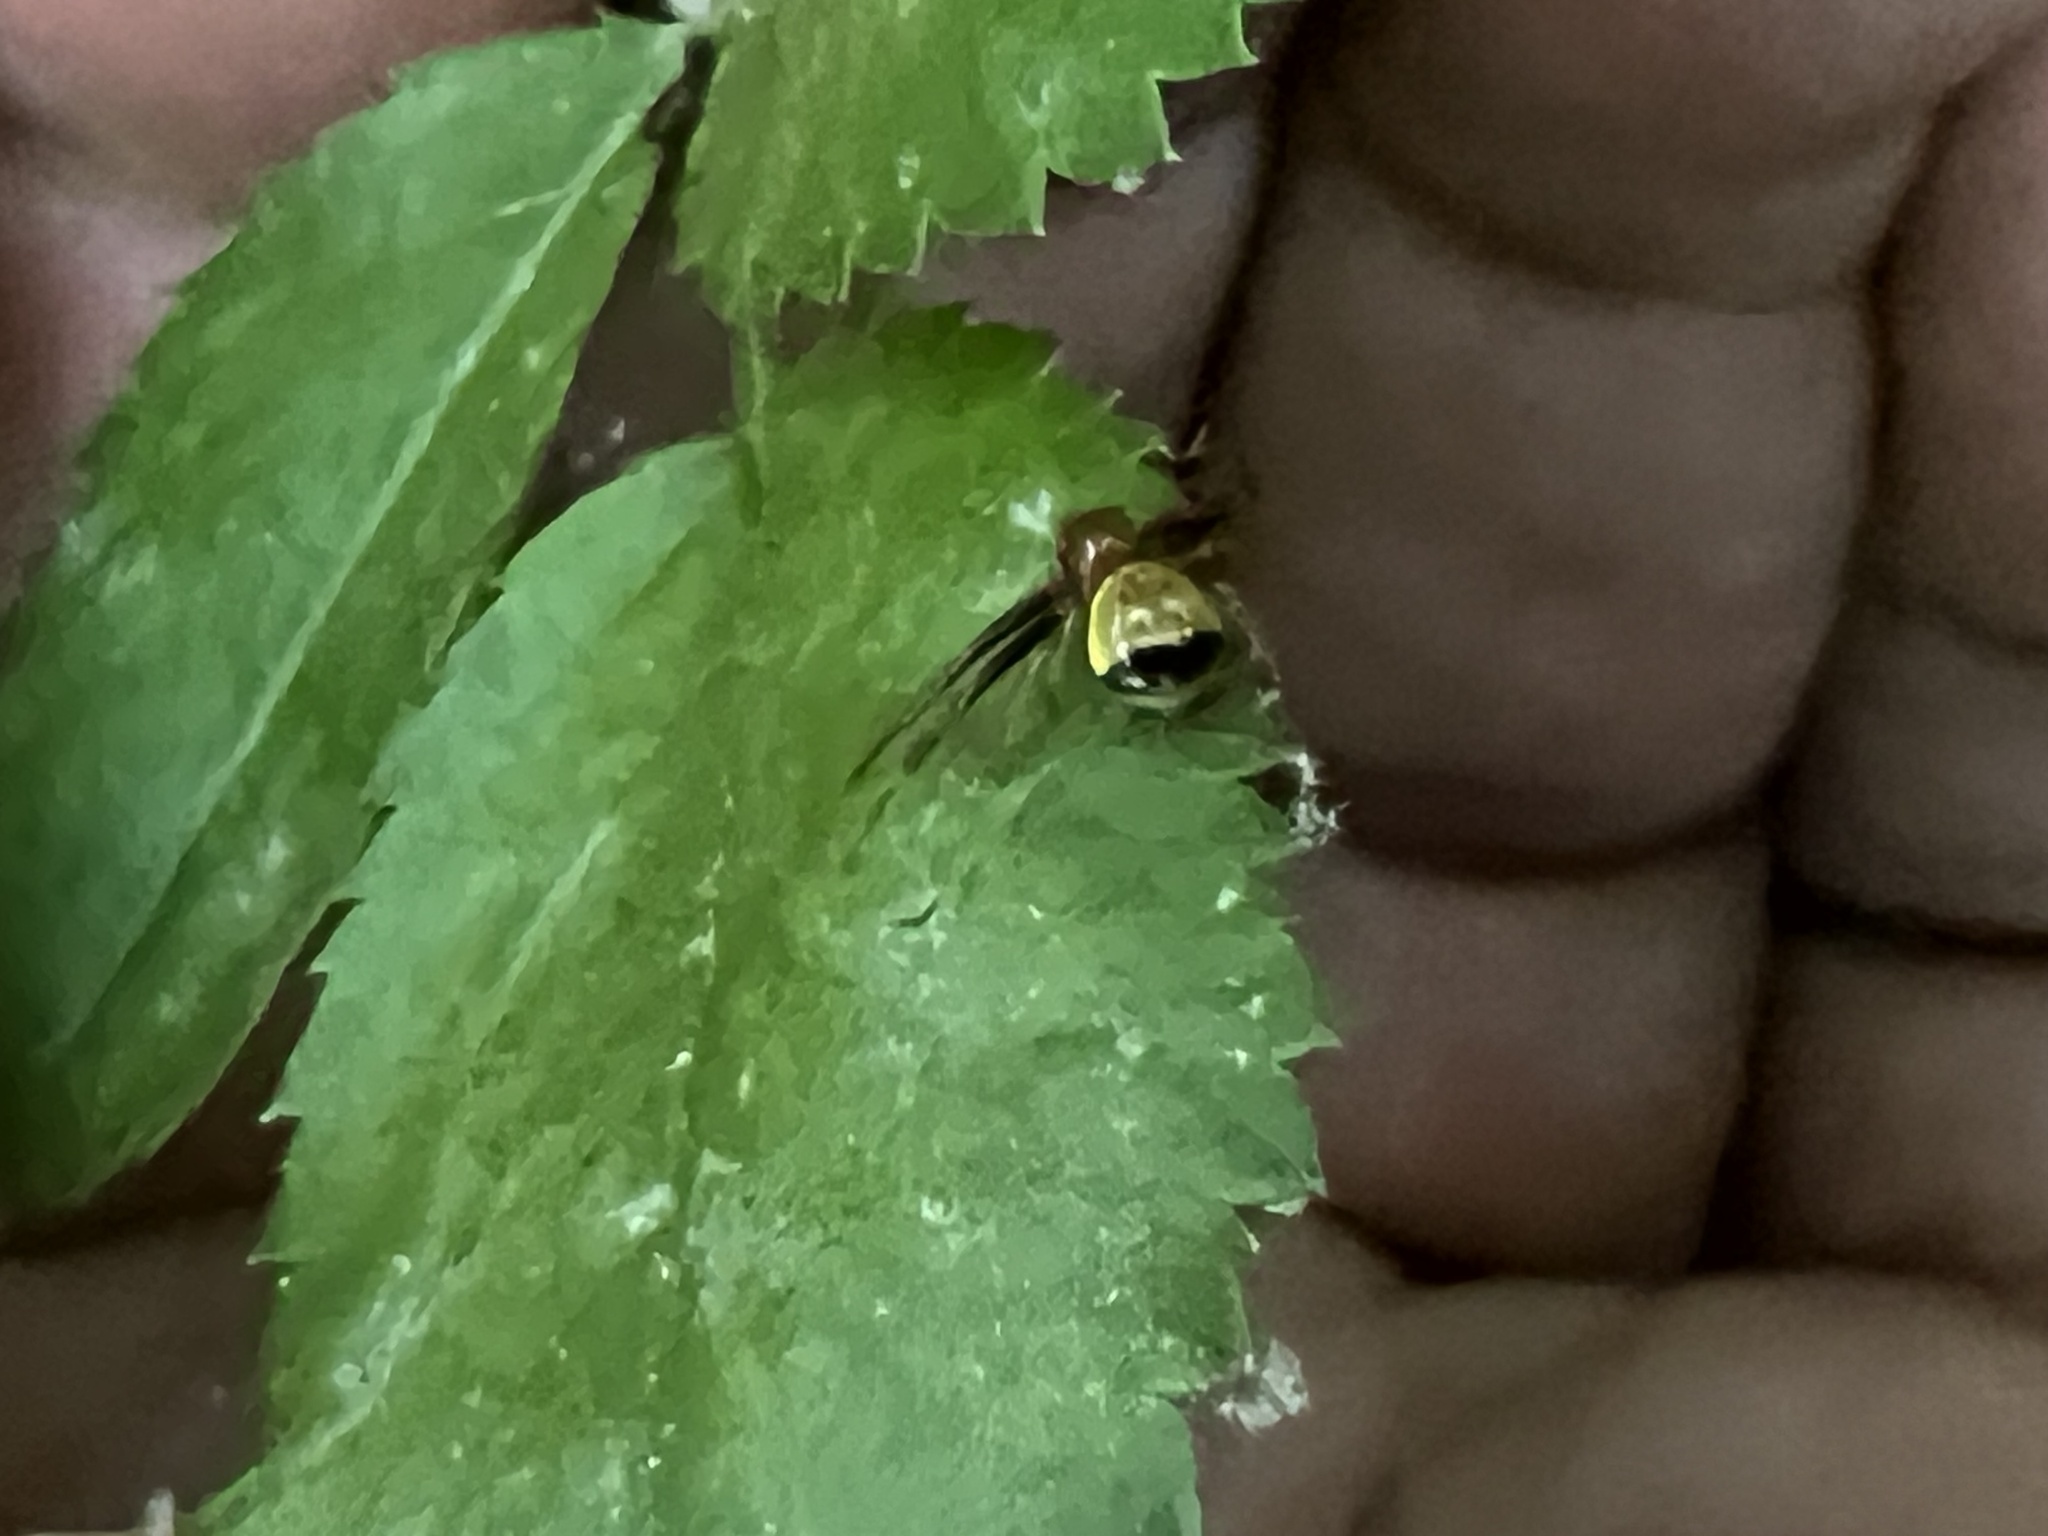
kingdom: Animalia
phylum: Arthropoda
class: Arachnida
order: Araneae
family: Thomisidae
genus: Synema
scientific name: Synema parvulum
